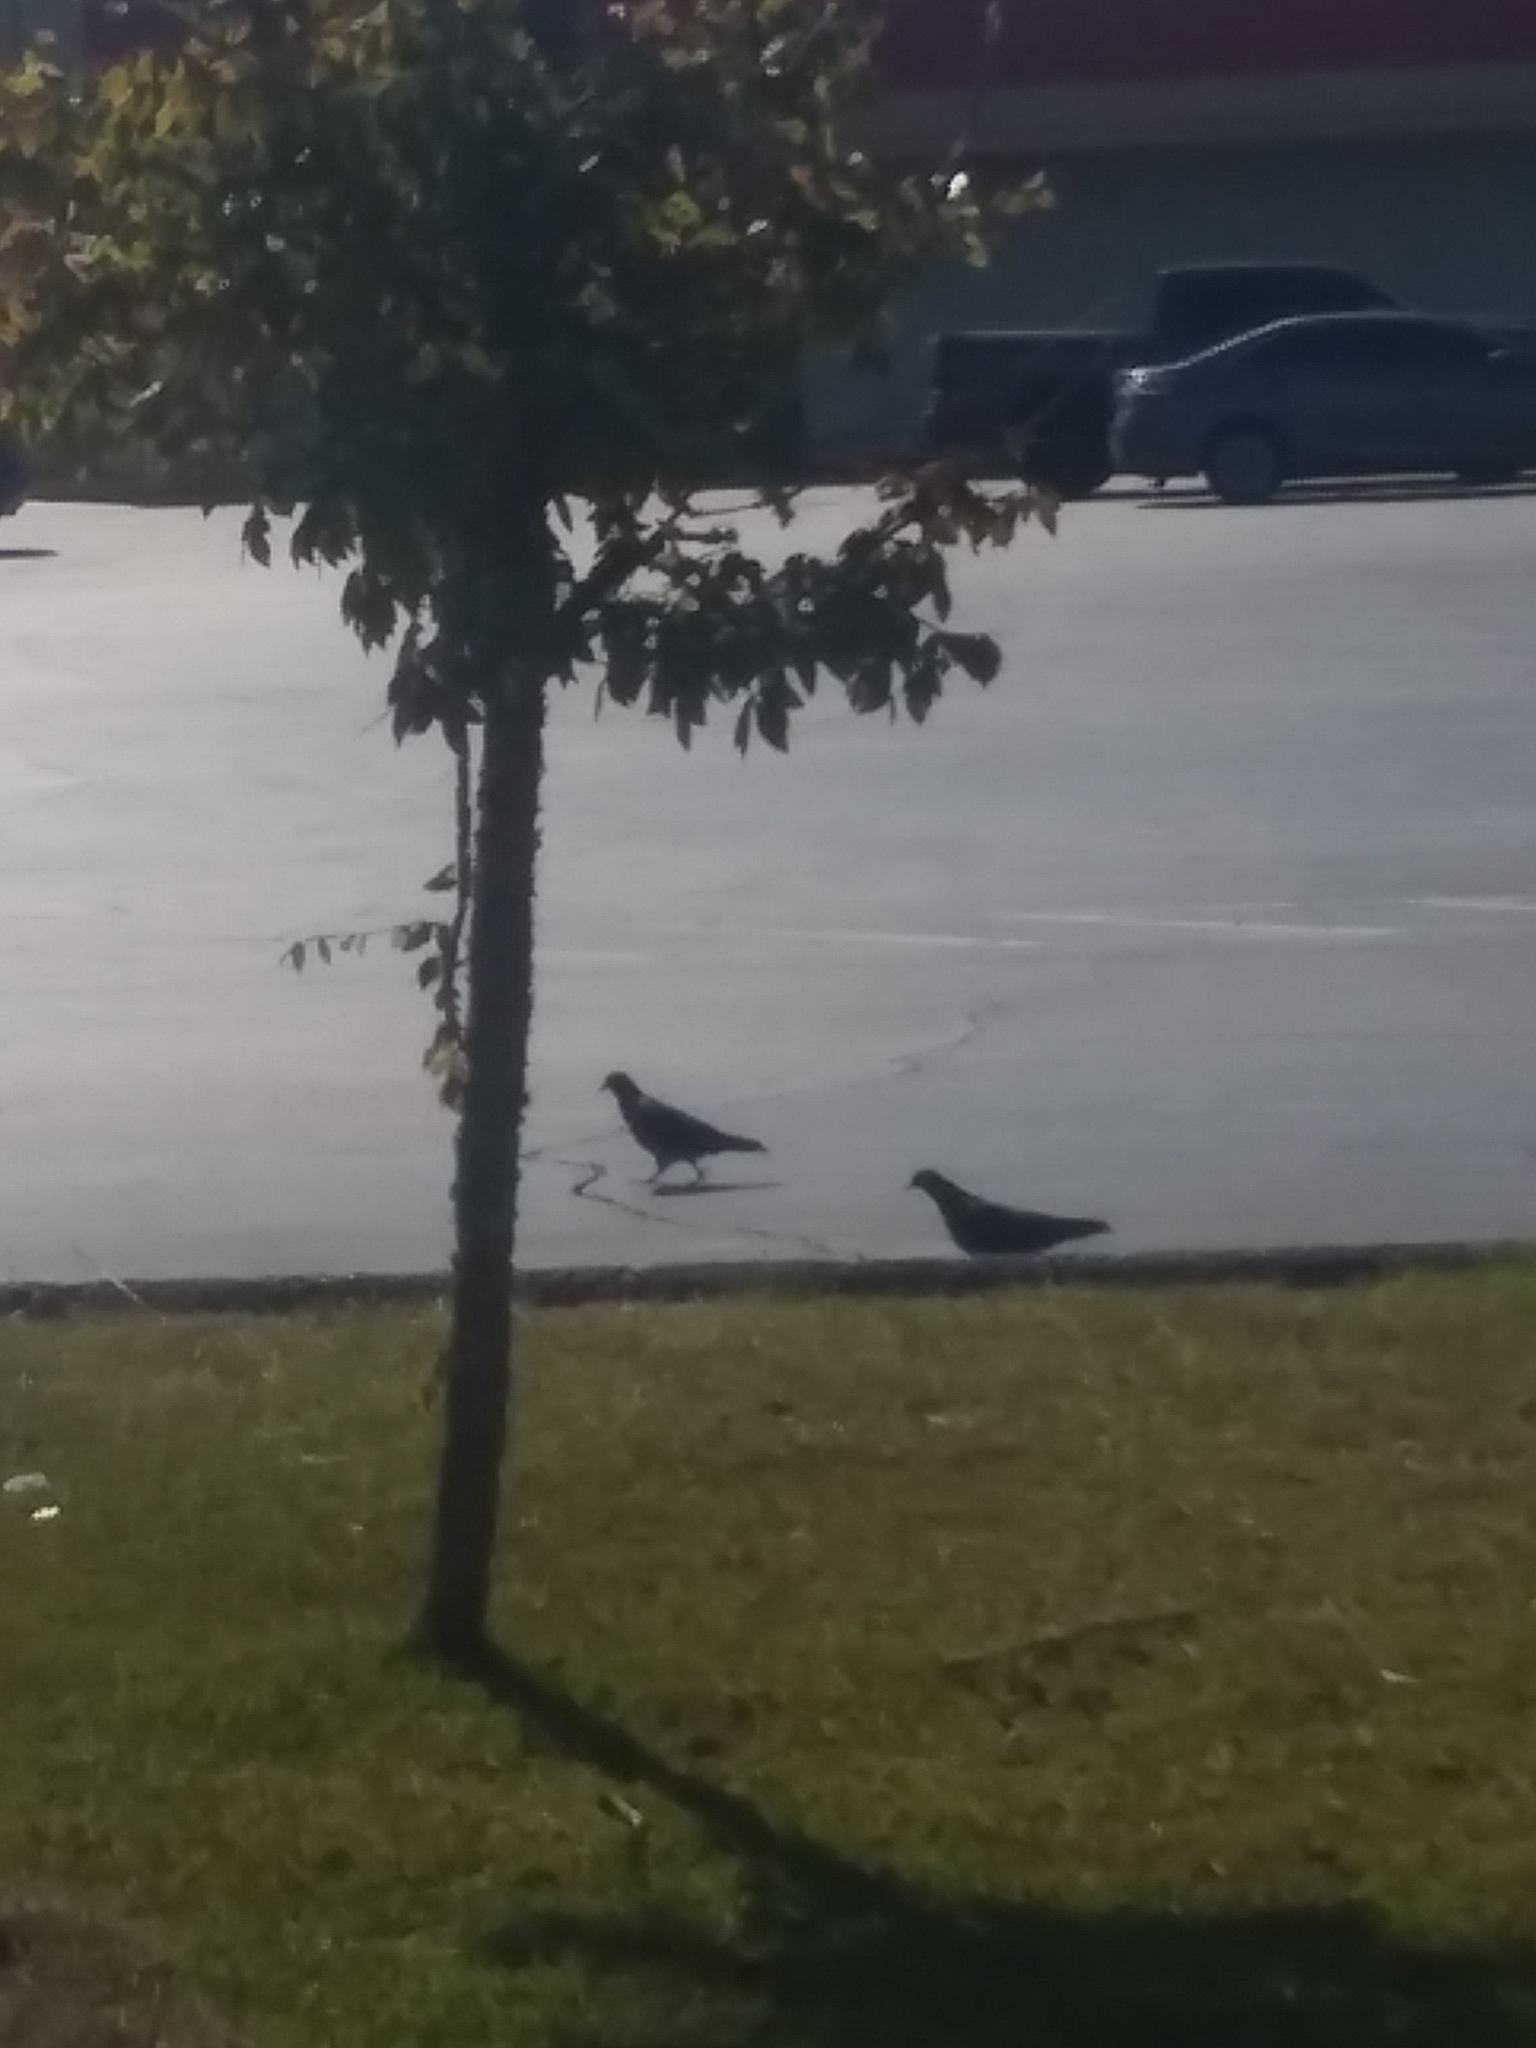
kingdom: Animalia
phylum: Chordata
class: Aves
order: Columbiformes
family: Columbidae
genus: Columba
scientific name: Columba livia
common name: Rock pigeon
